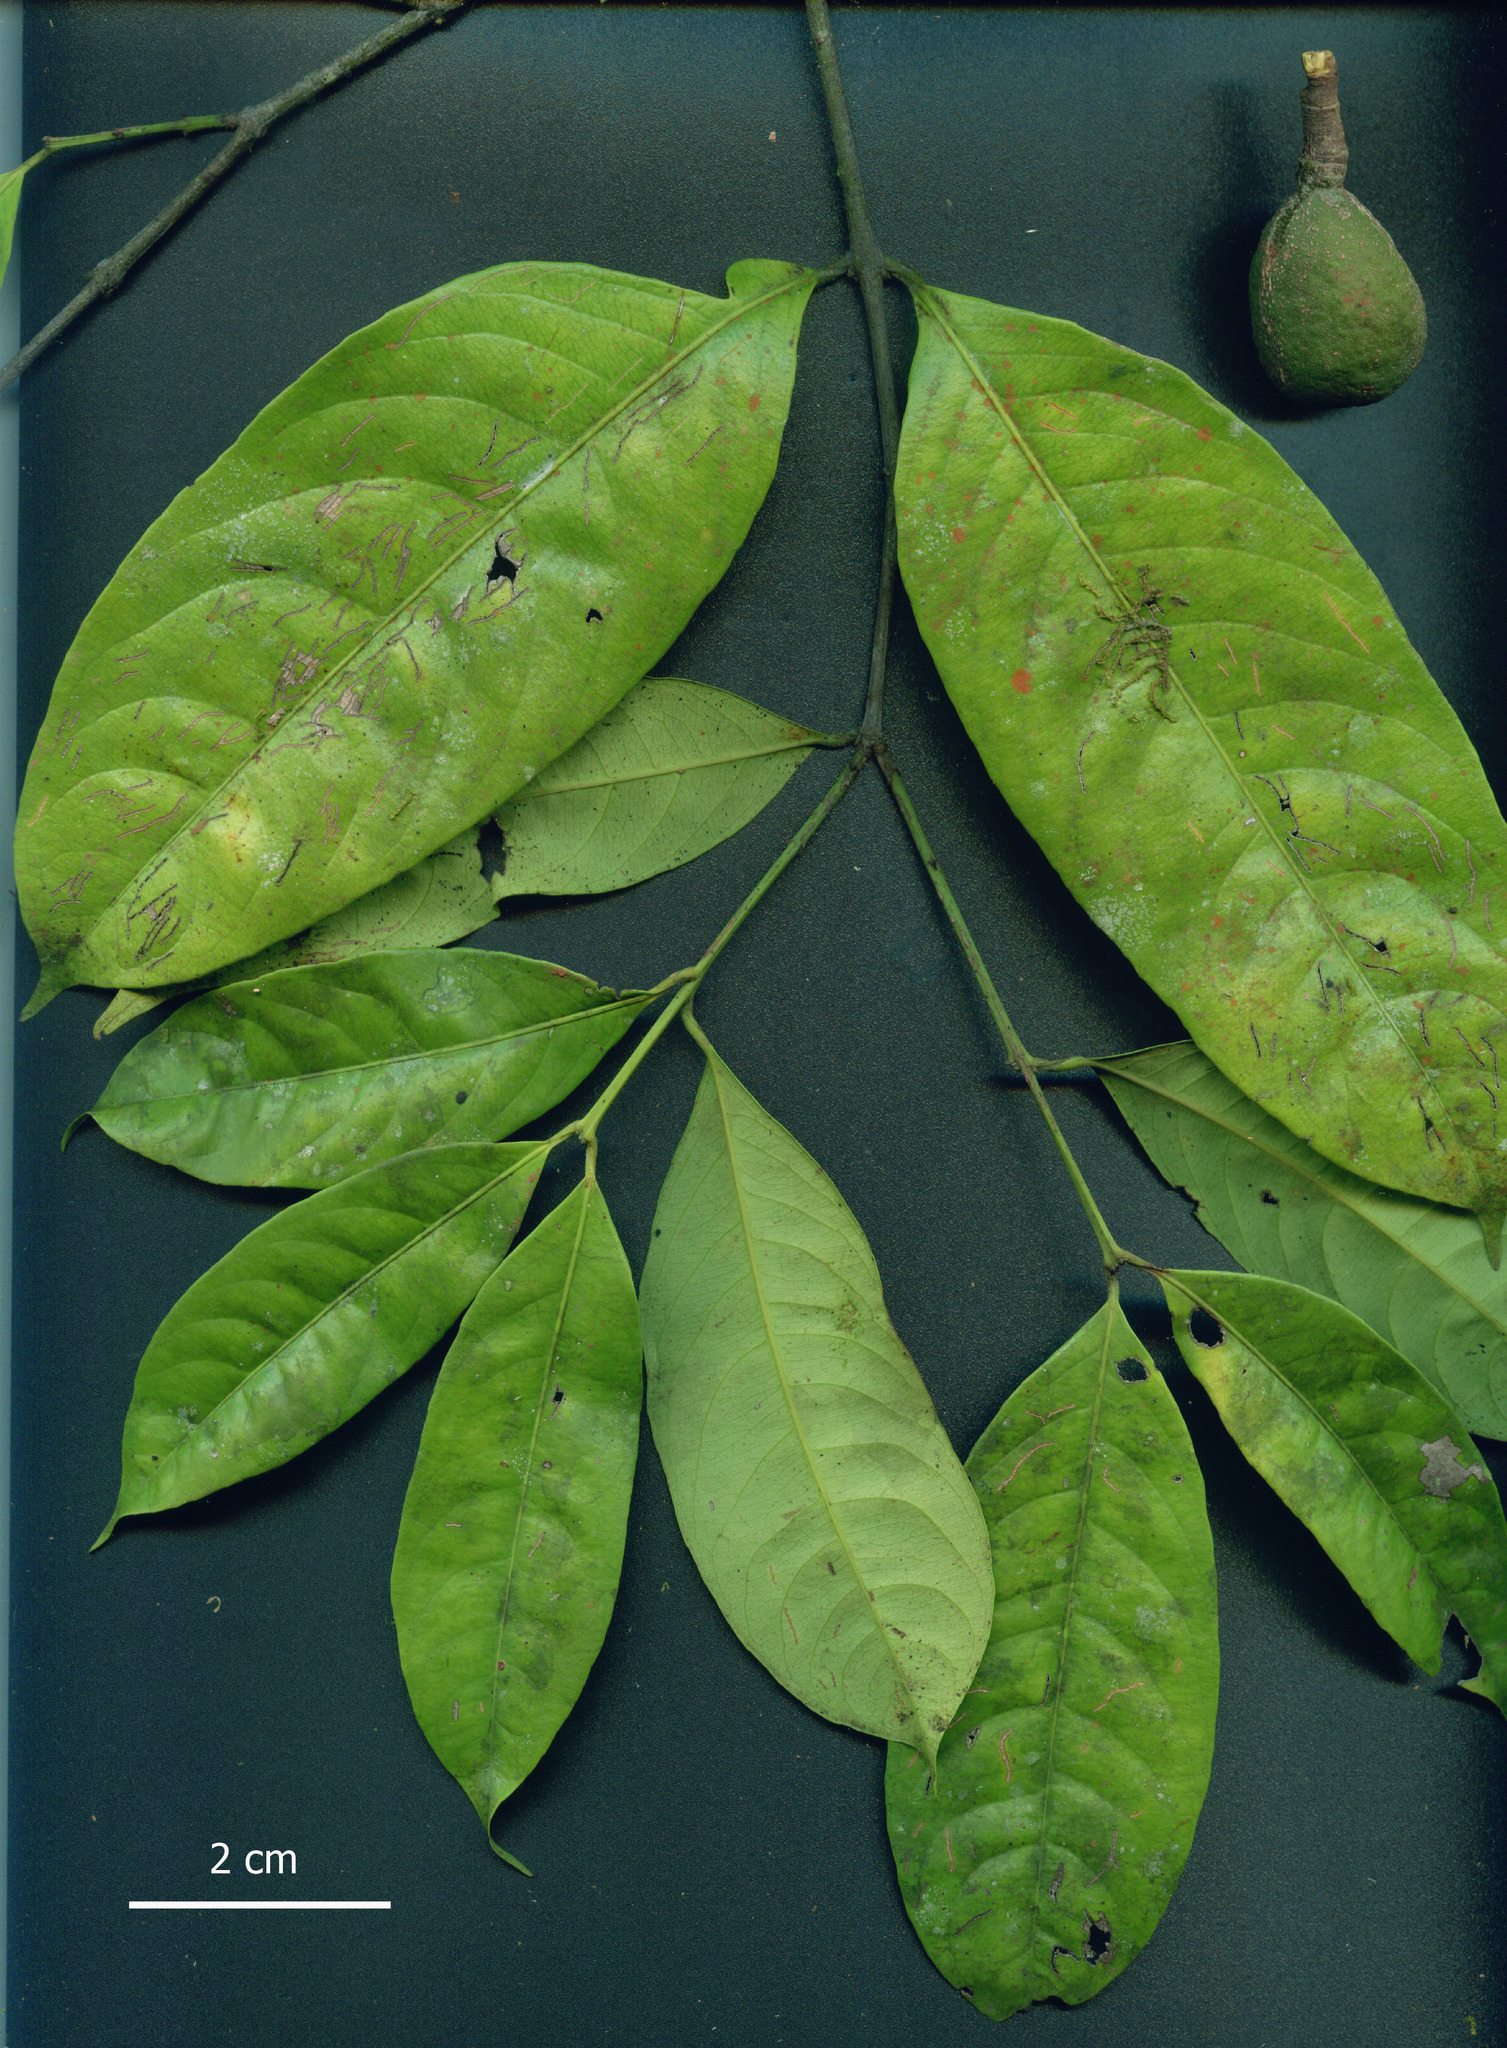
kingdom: Plantae
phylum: Tracheophyta
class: Magnoliopsida
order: Celastrales
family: Celastraceae
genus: Cheiloclinium
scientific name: Cheiloclinium cognatum
